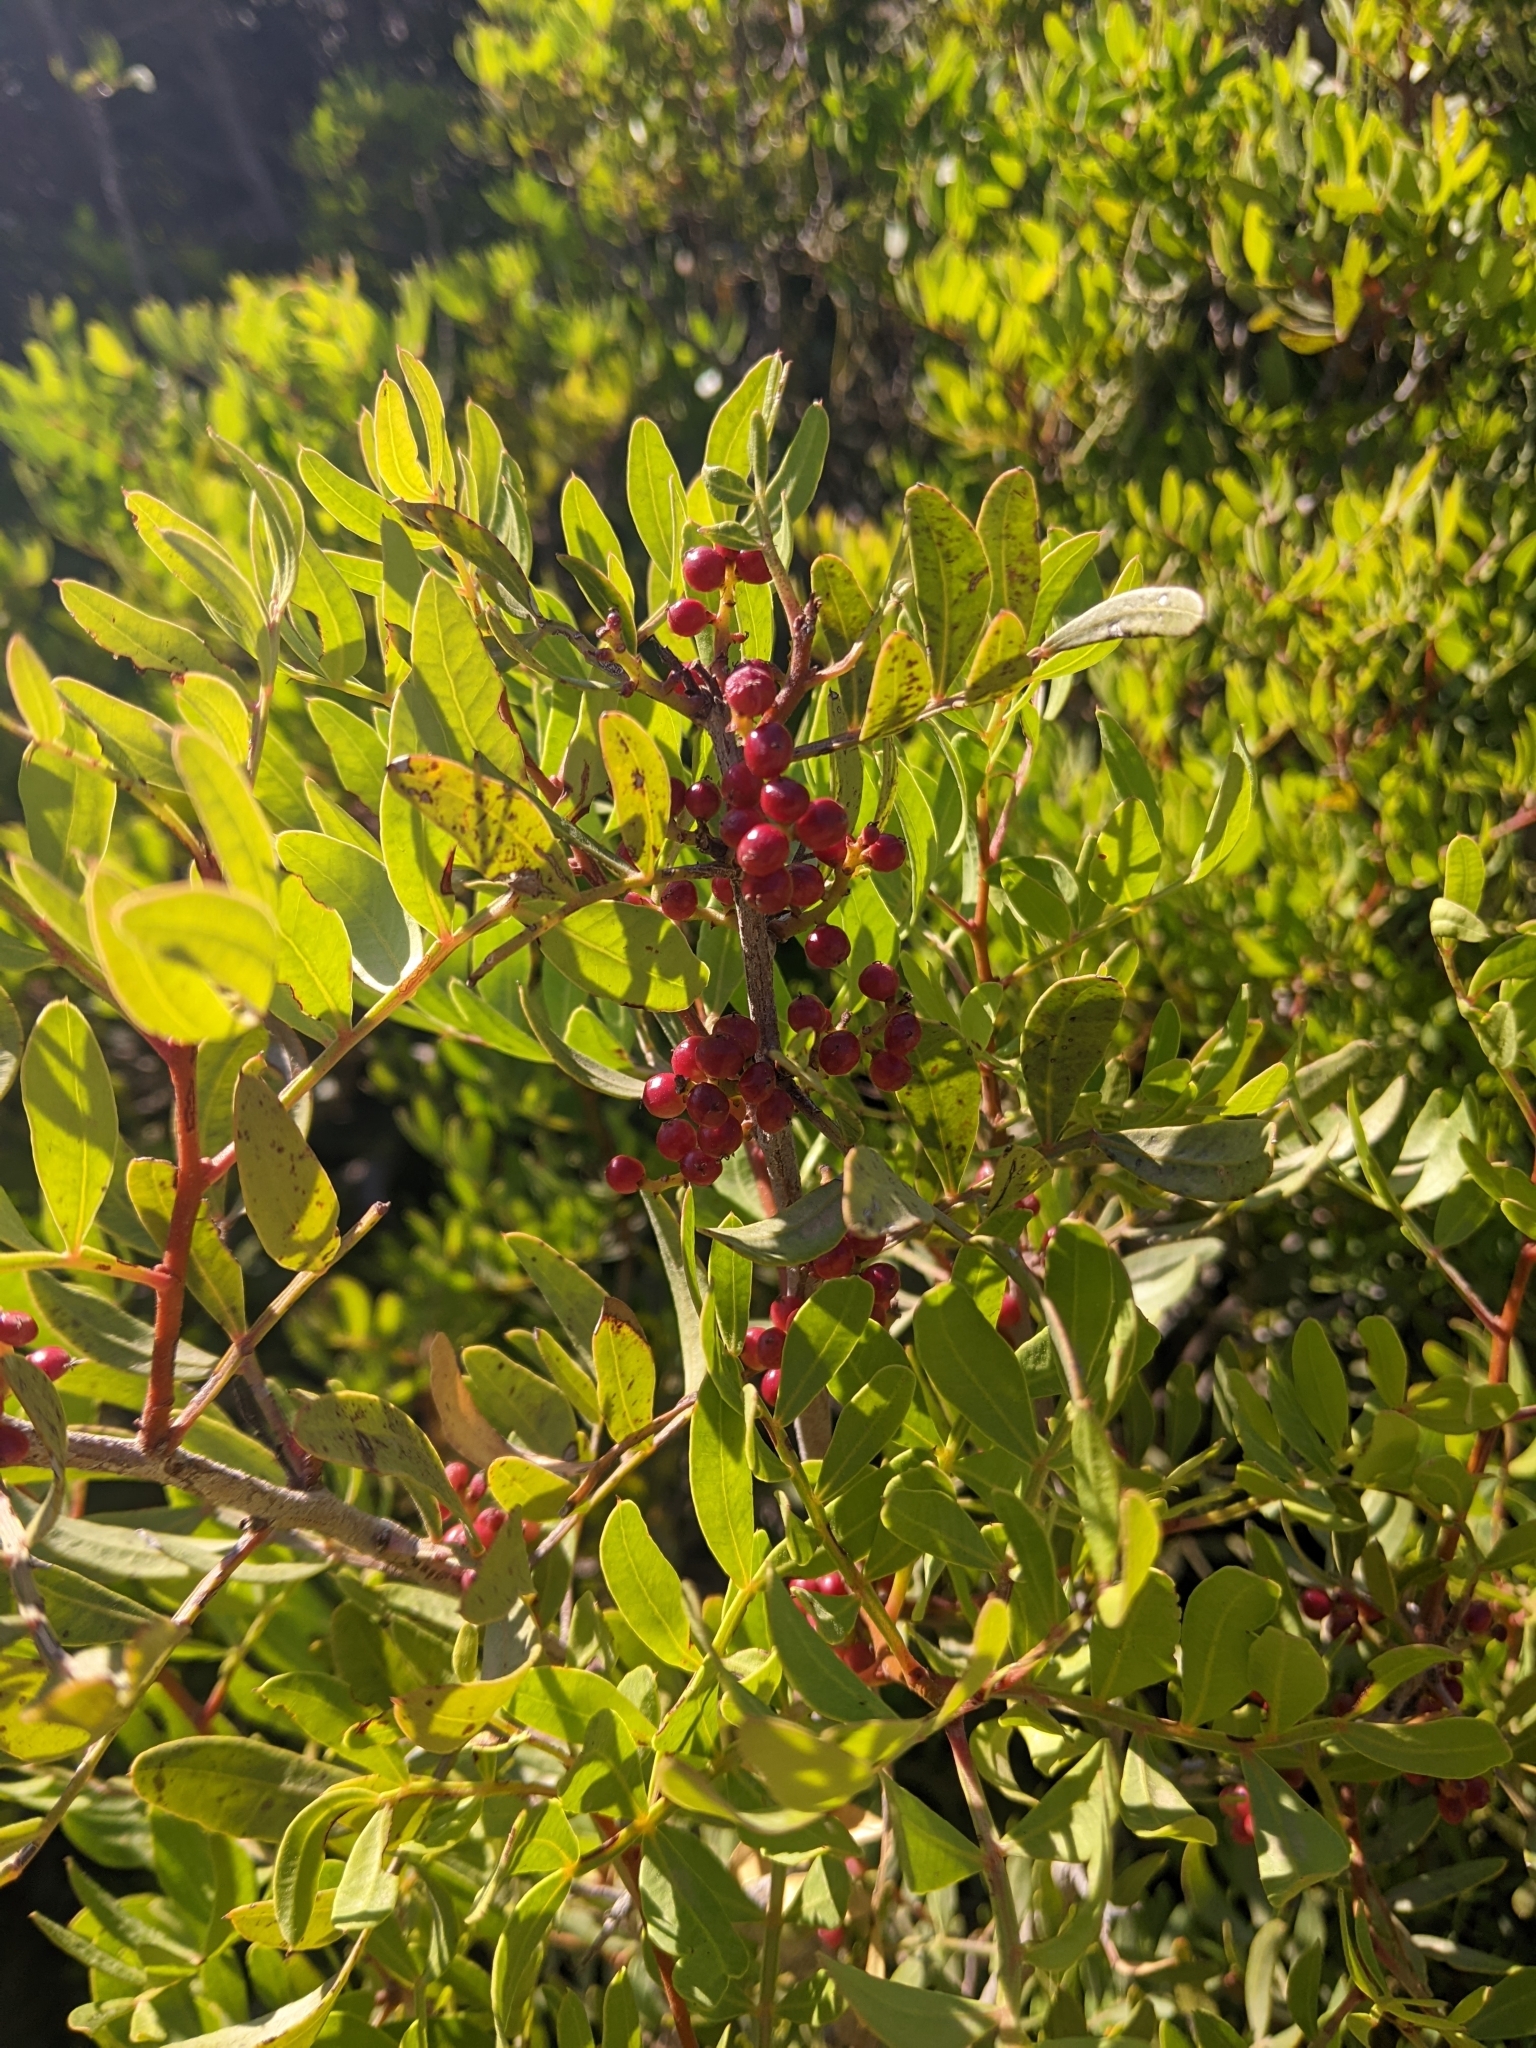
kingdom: Plantae
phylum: Tracheophyta
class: Magnoliopsida
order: Sapindales
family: Anacardiaceae
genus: Pistacia
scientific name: Pistacia lentiscus
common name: Lentisk
